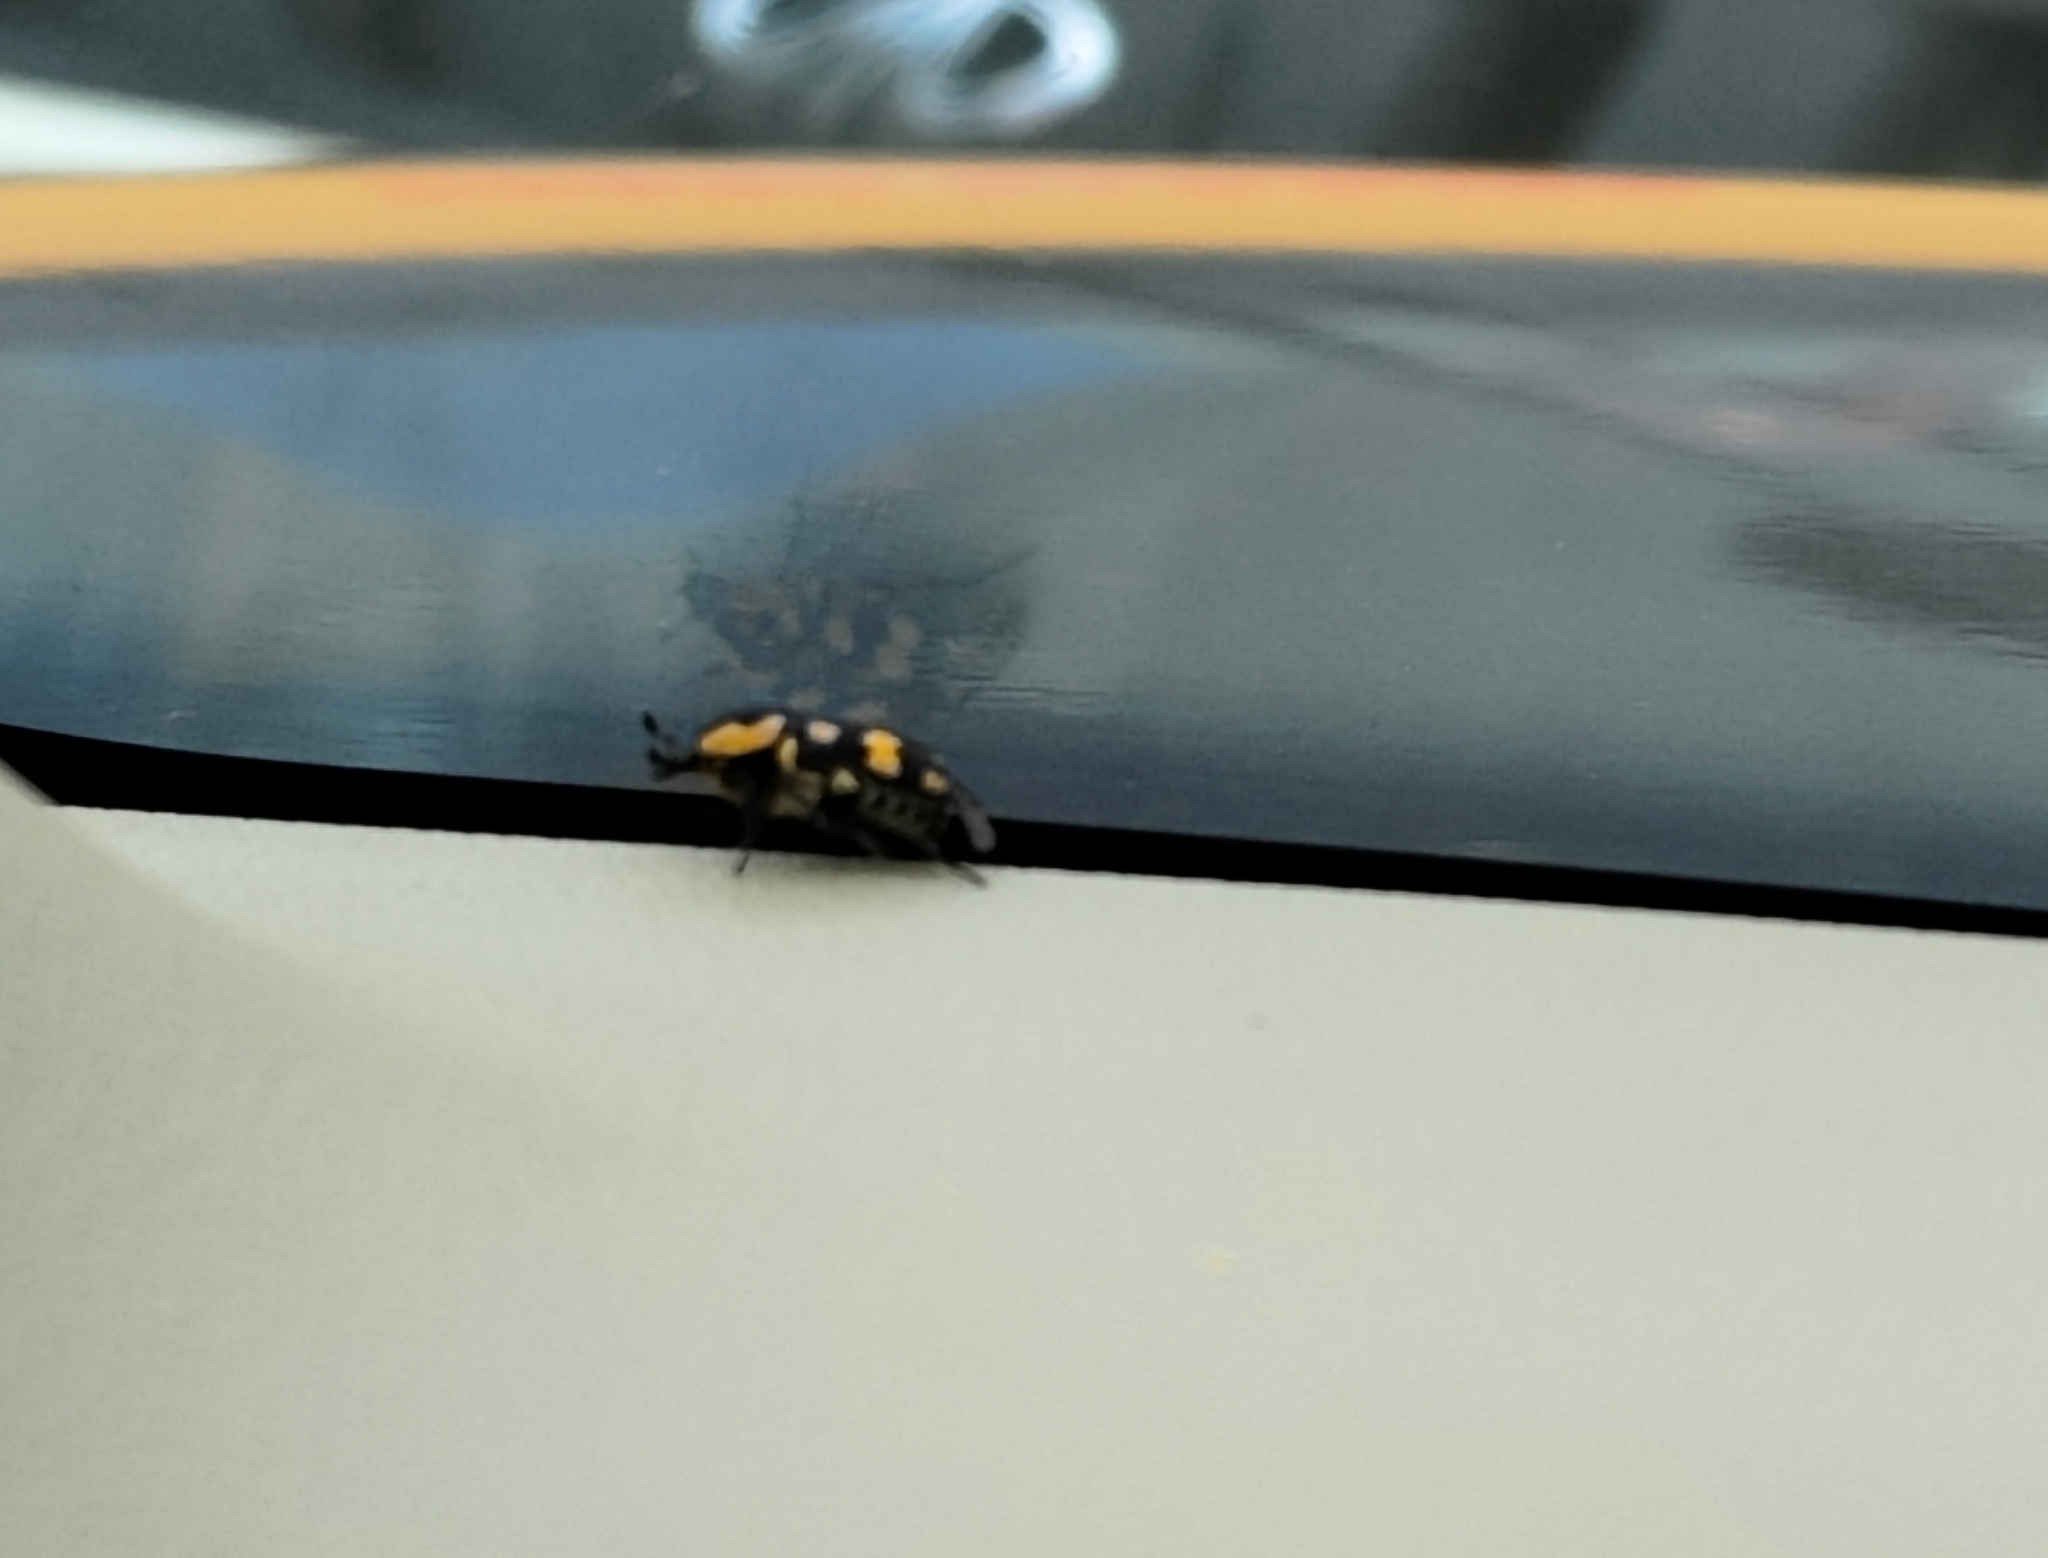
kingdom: Animalia
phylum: Arthropoda
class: Insecta
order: Coleoptera
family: Scarabaeidae
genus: Clinteria
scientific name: Clinteria klugi
